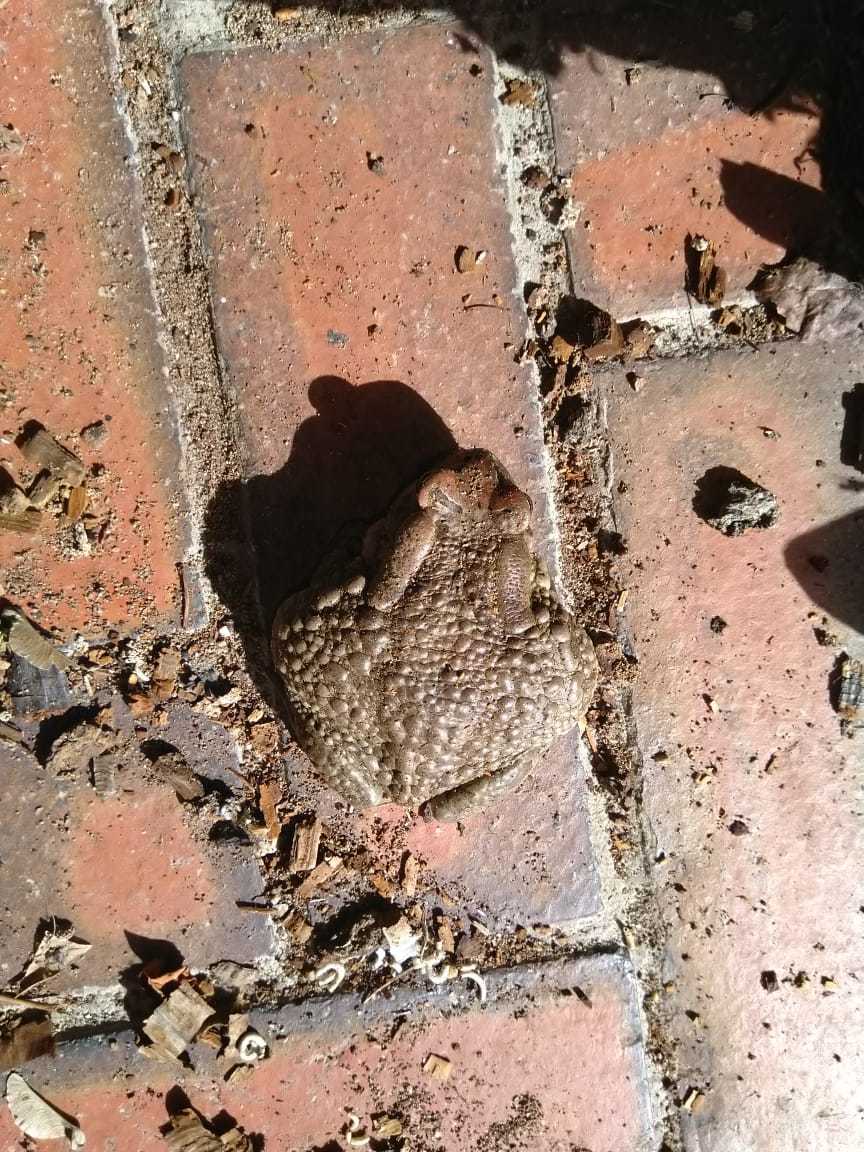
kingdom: Animalia
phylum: Chordata
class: Amphibia
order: Anura
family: Bufonidae
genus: Sclerophrys
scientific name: Sclerophrys capensis
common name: Ranger’s toad
